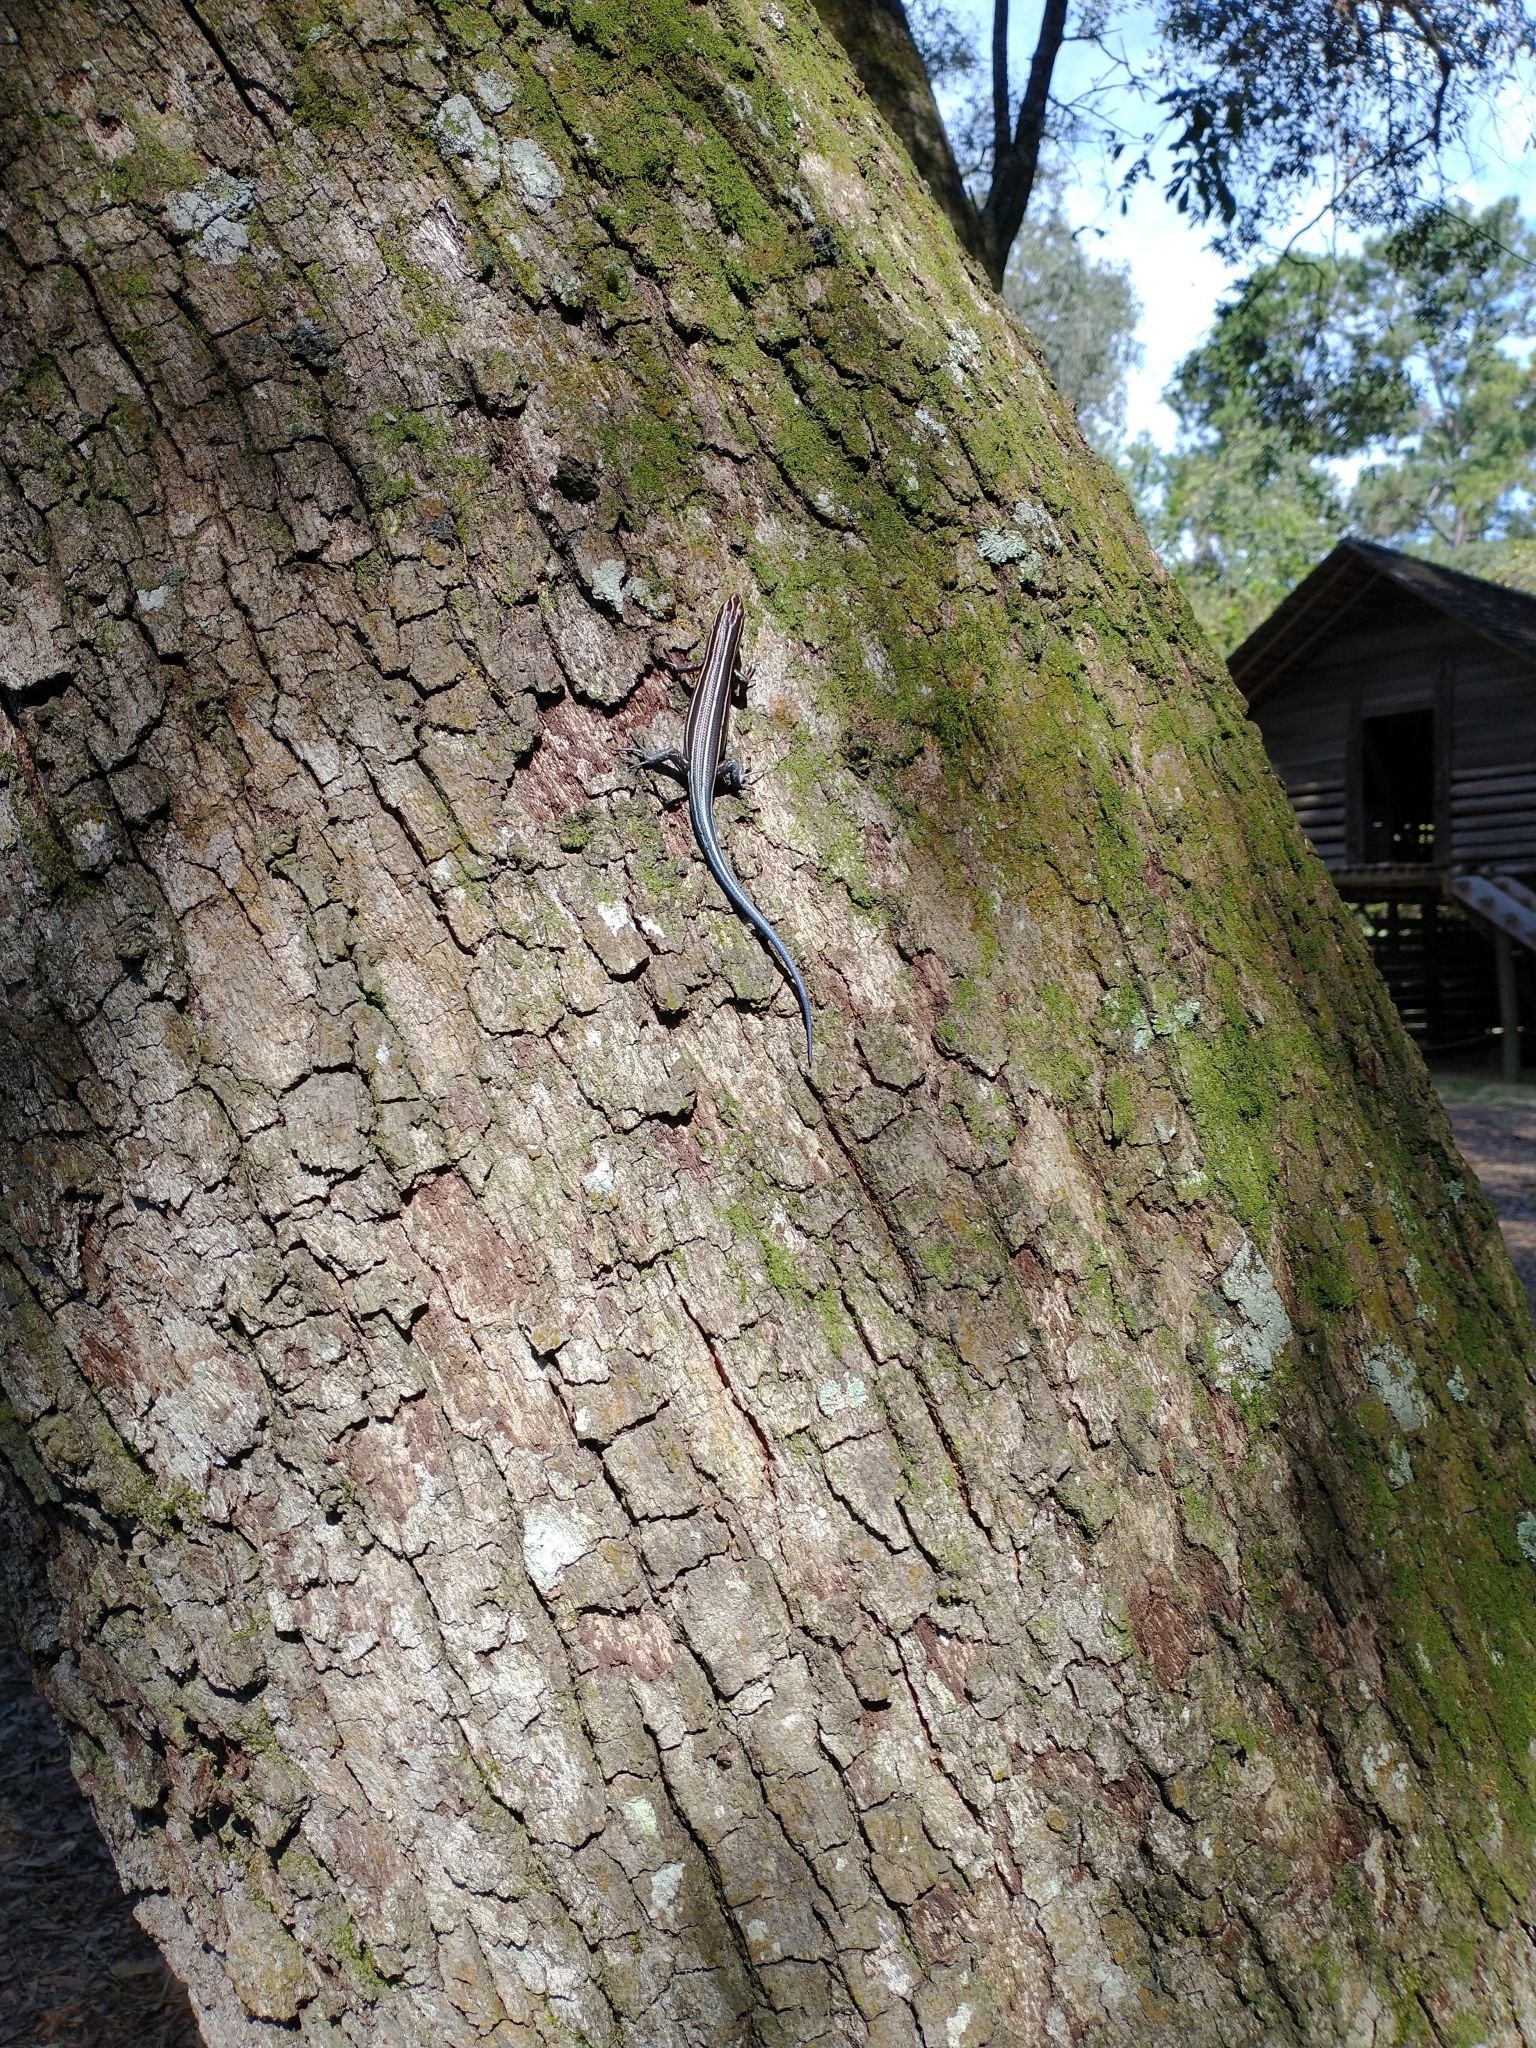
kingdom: Animalia
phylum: Chordata
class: Squamata
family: Scincidae
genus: Plestiodon
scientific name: Plestiodon
